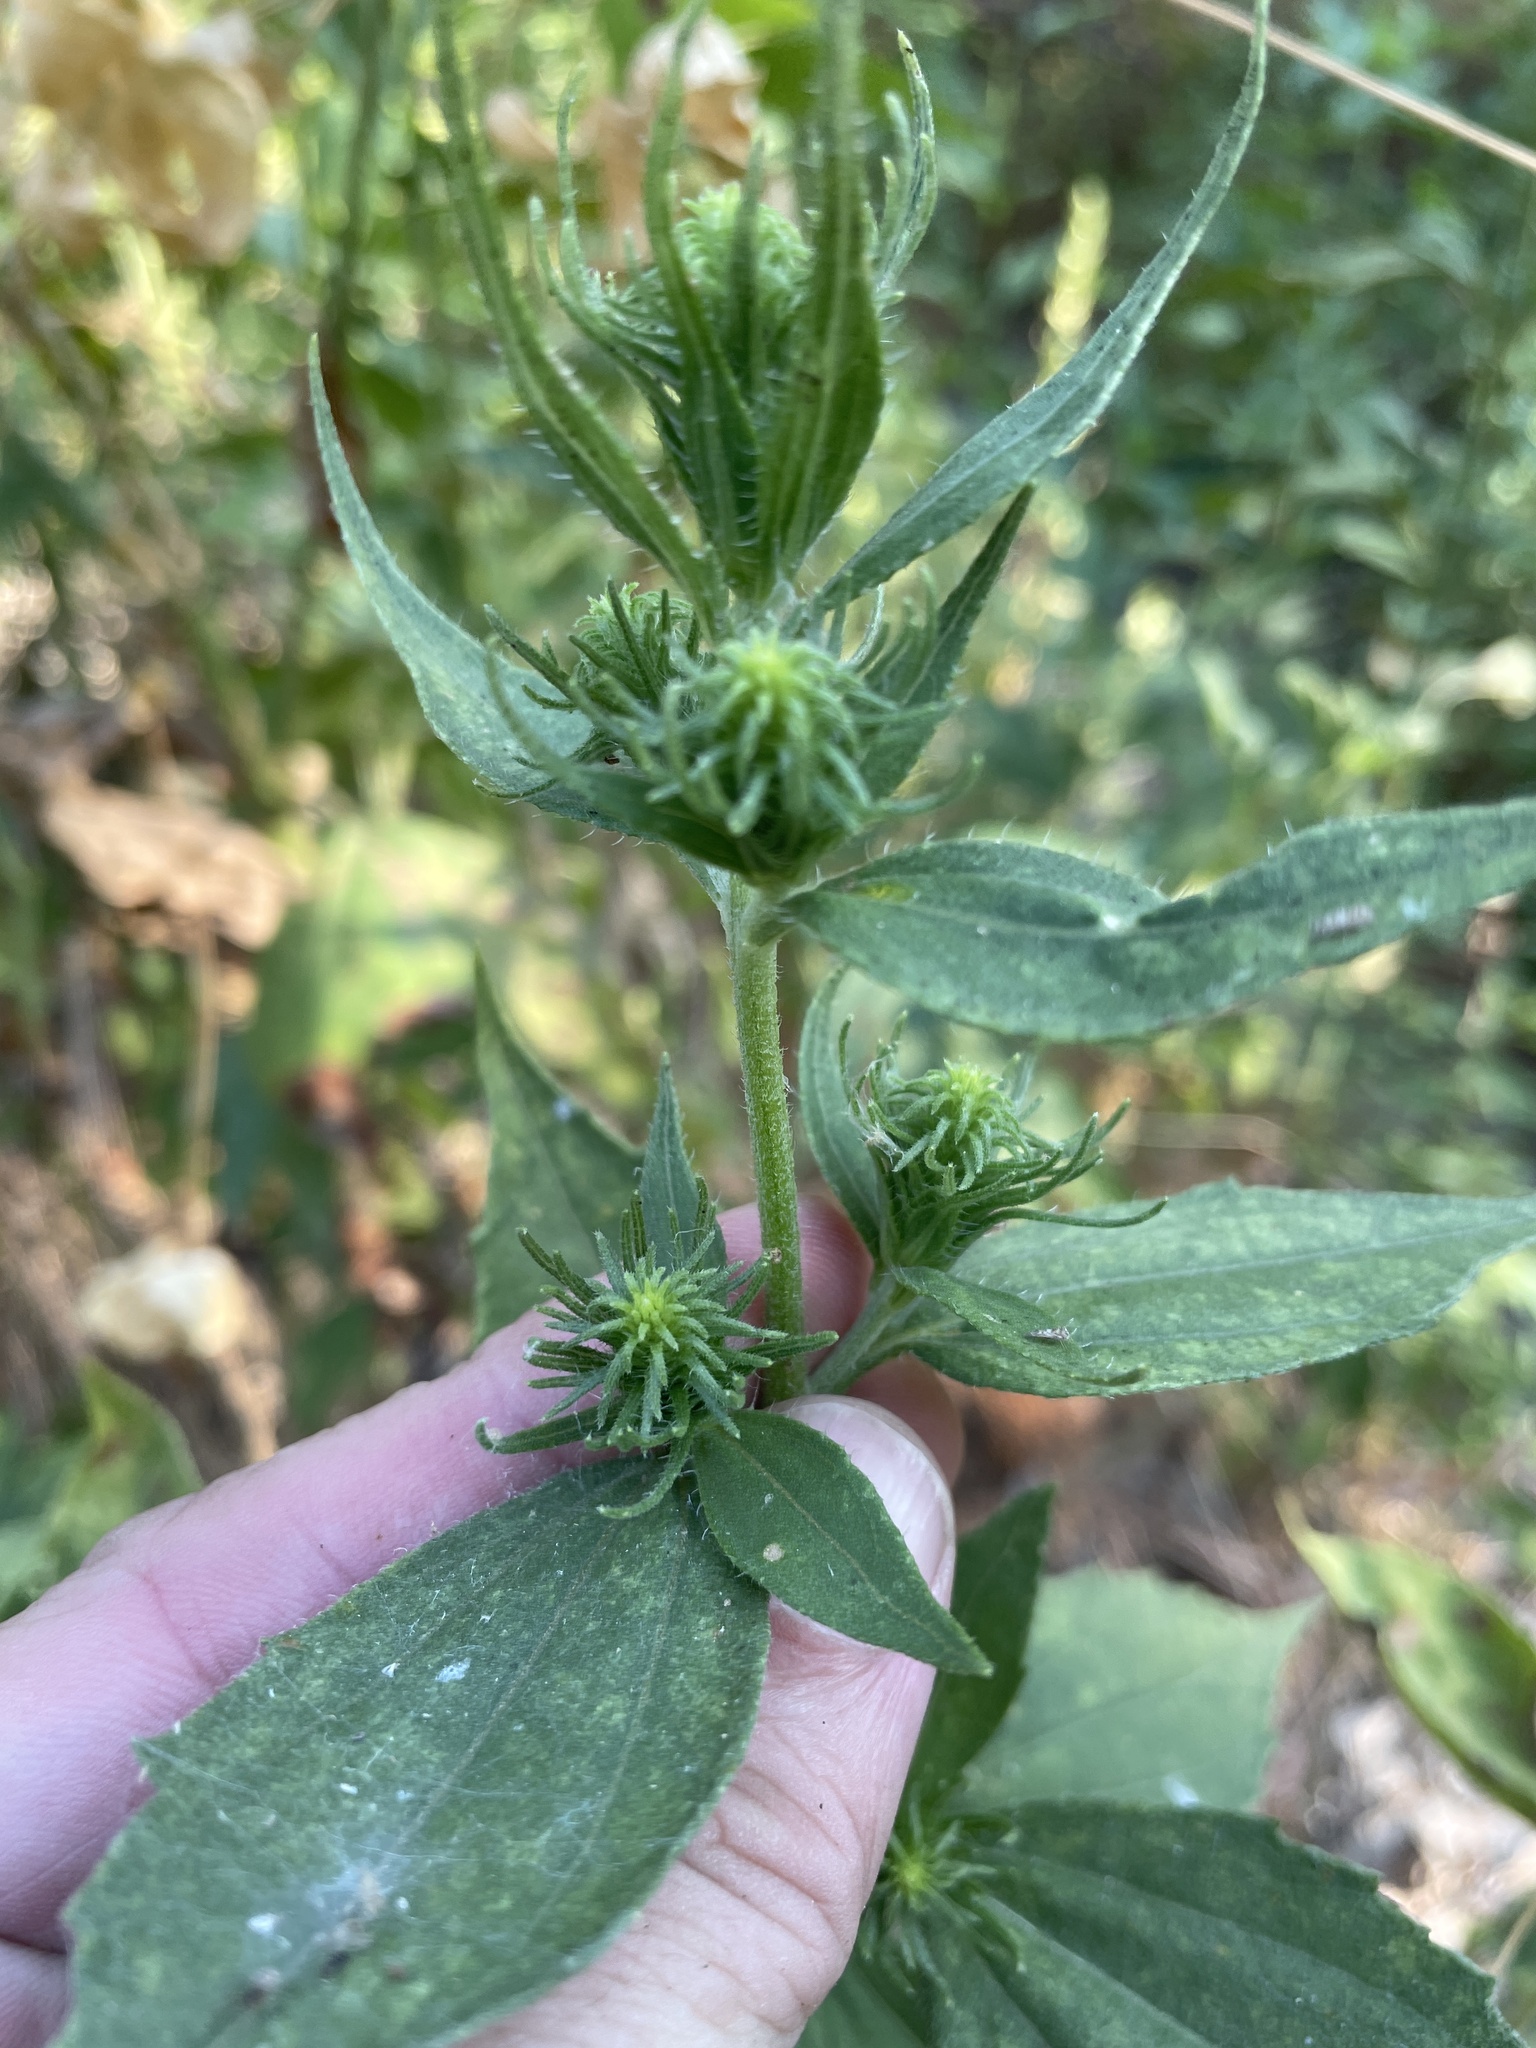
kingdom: Plantae
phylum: Tracheophyta
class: Magnoliopsida
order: Asterales
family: Asteraceae
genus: Iva
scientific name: Iva annua
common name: Marsh-elder
